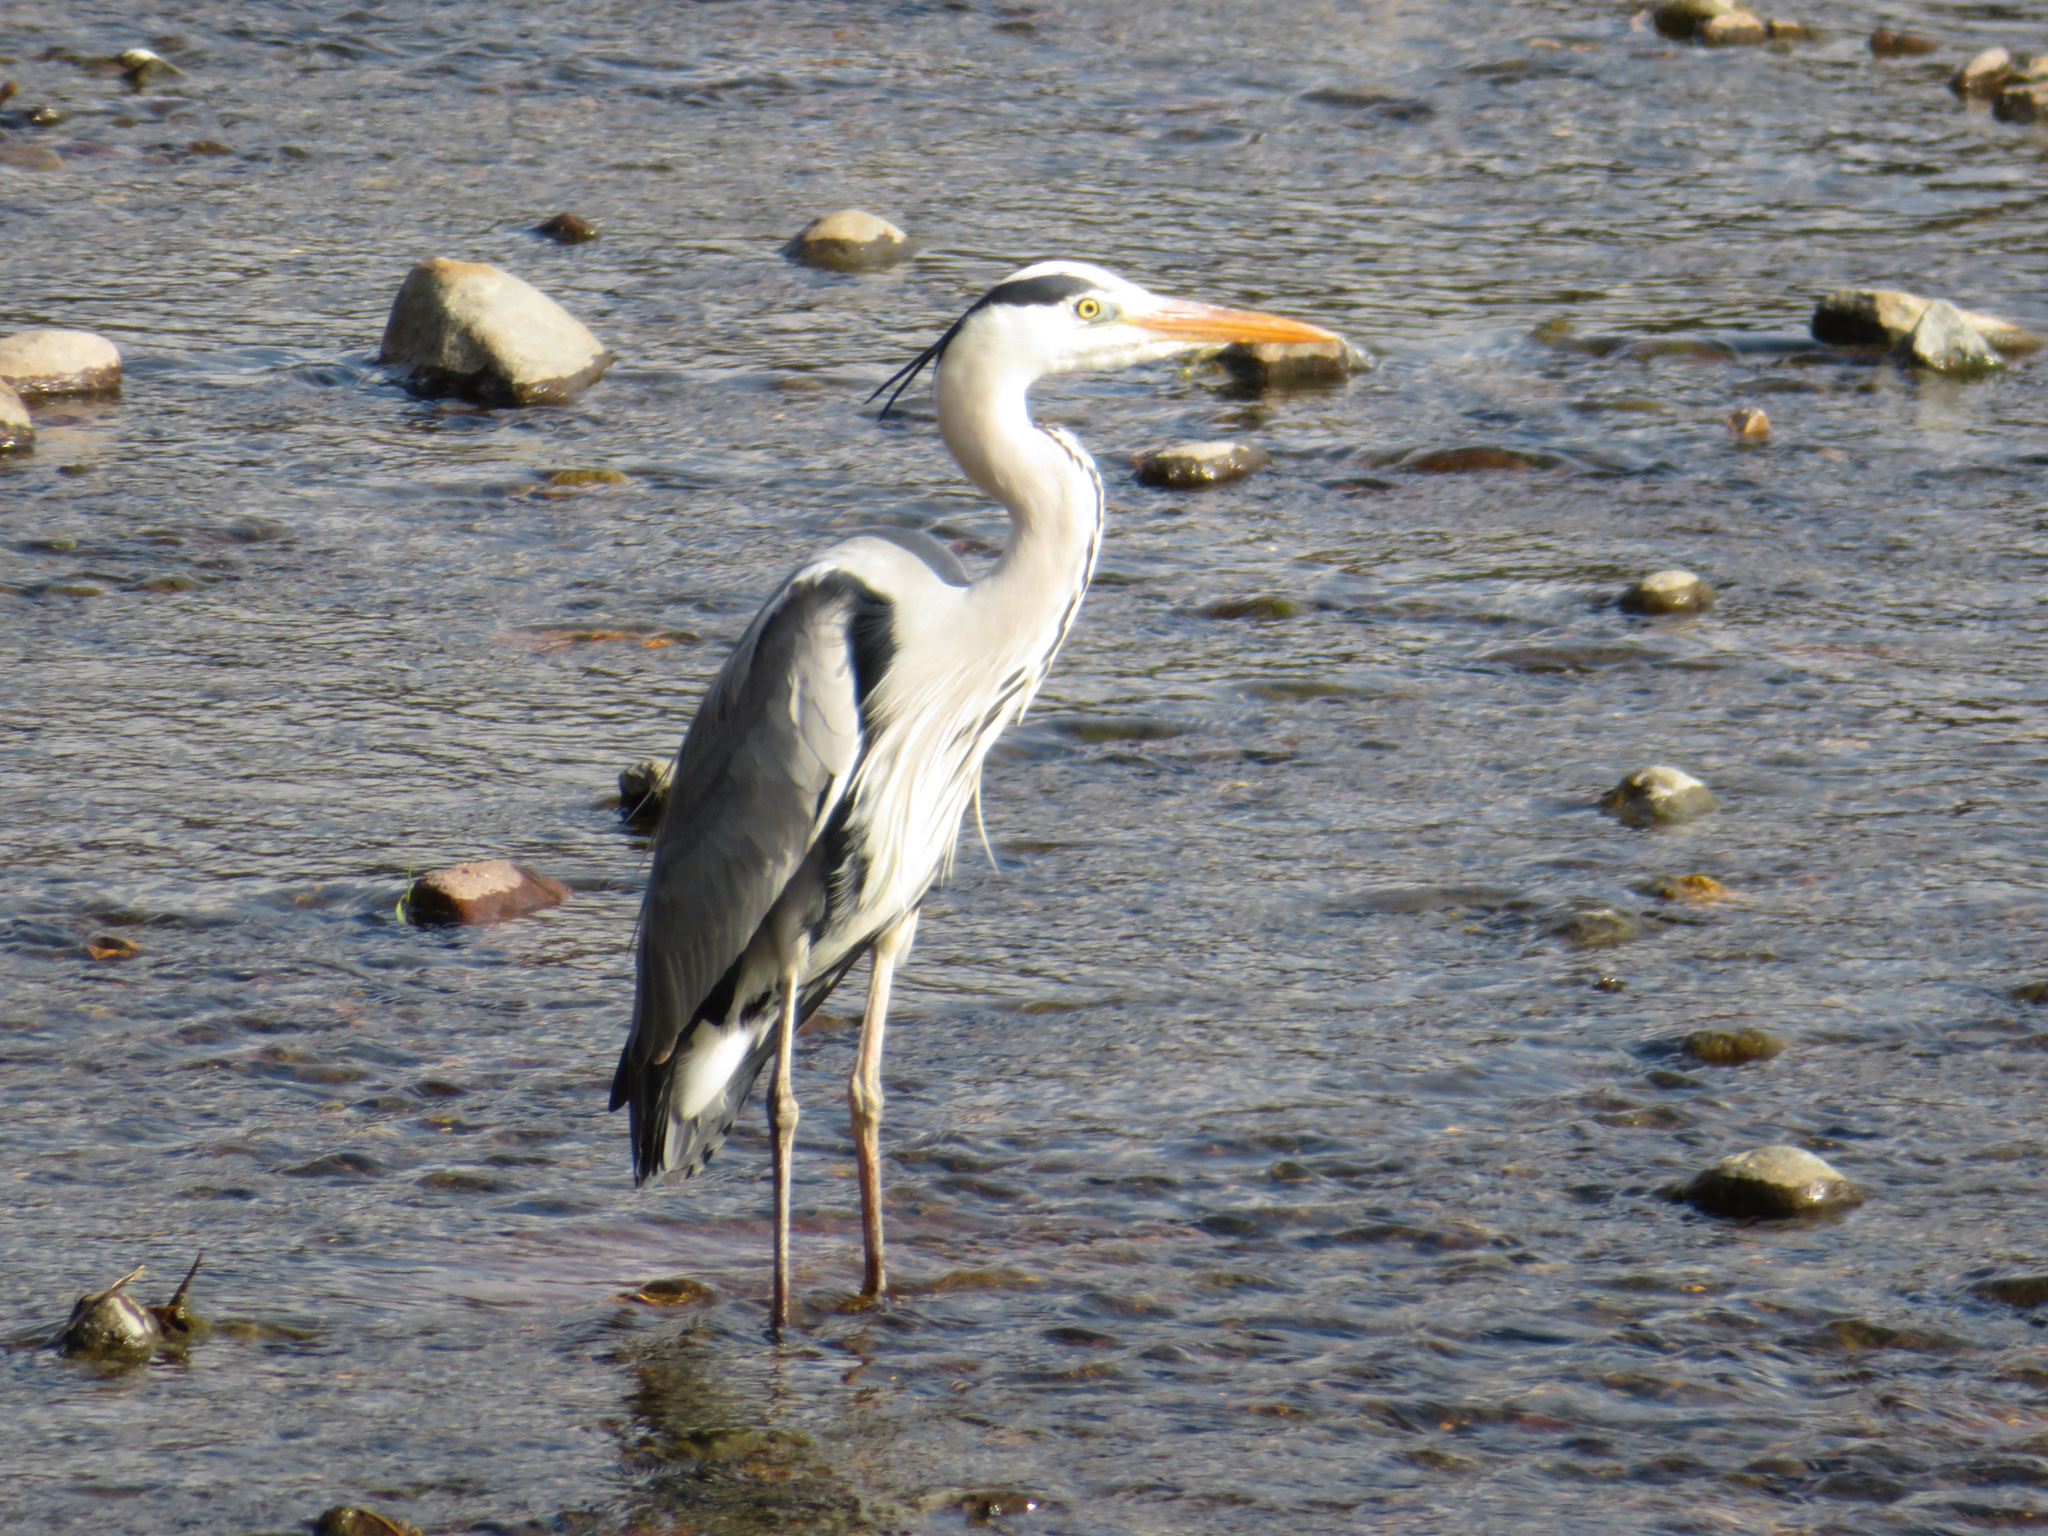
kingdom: Animalia
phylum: Chordata
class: Aves
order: Pelecaniformes
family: Ardeidae
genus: Ardea
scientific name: Ardea cinerea
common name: Grey heron
